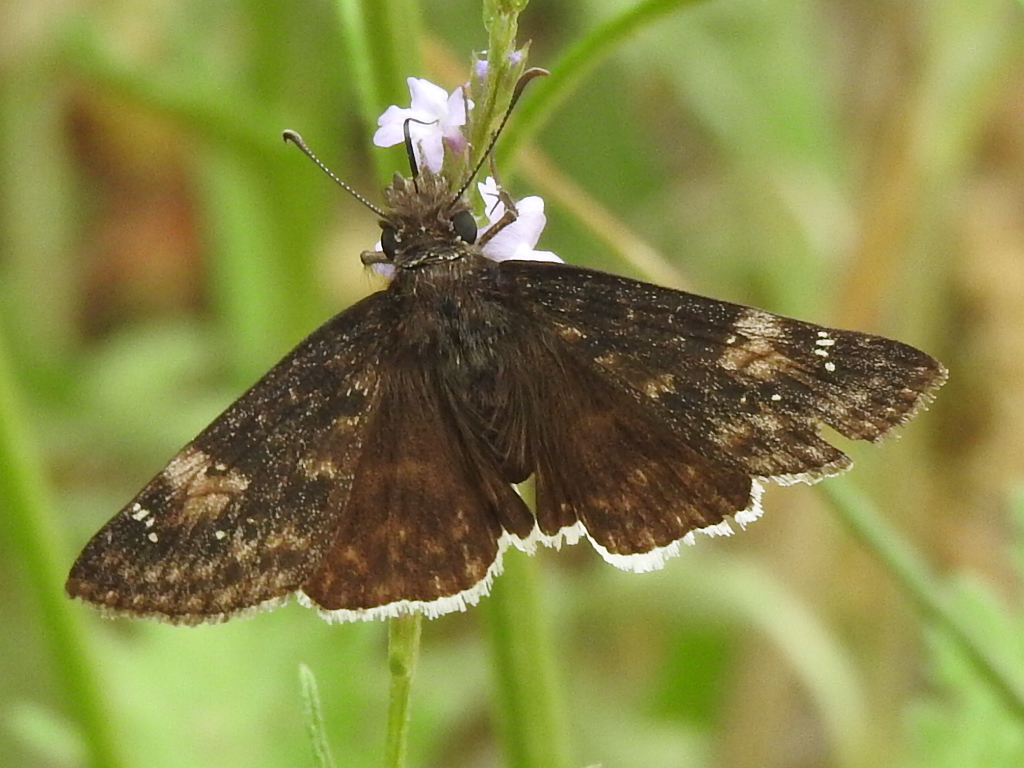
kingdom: Animalia
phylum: Arthropoda
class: Insecta
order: Lepidoptera
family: Hesperiidae
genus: Erynnis
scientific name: Erynnis funeralis
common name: Funereal duskywing
